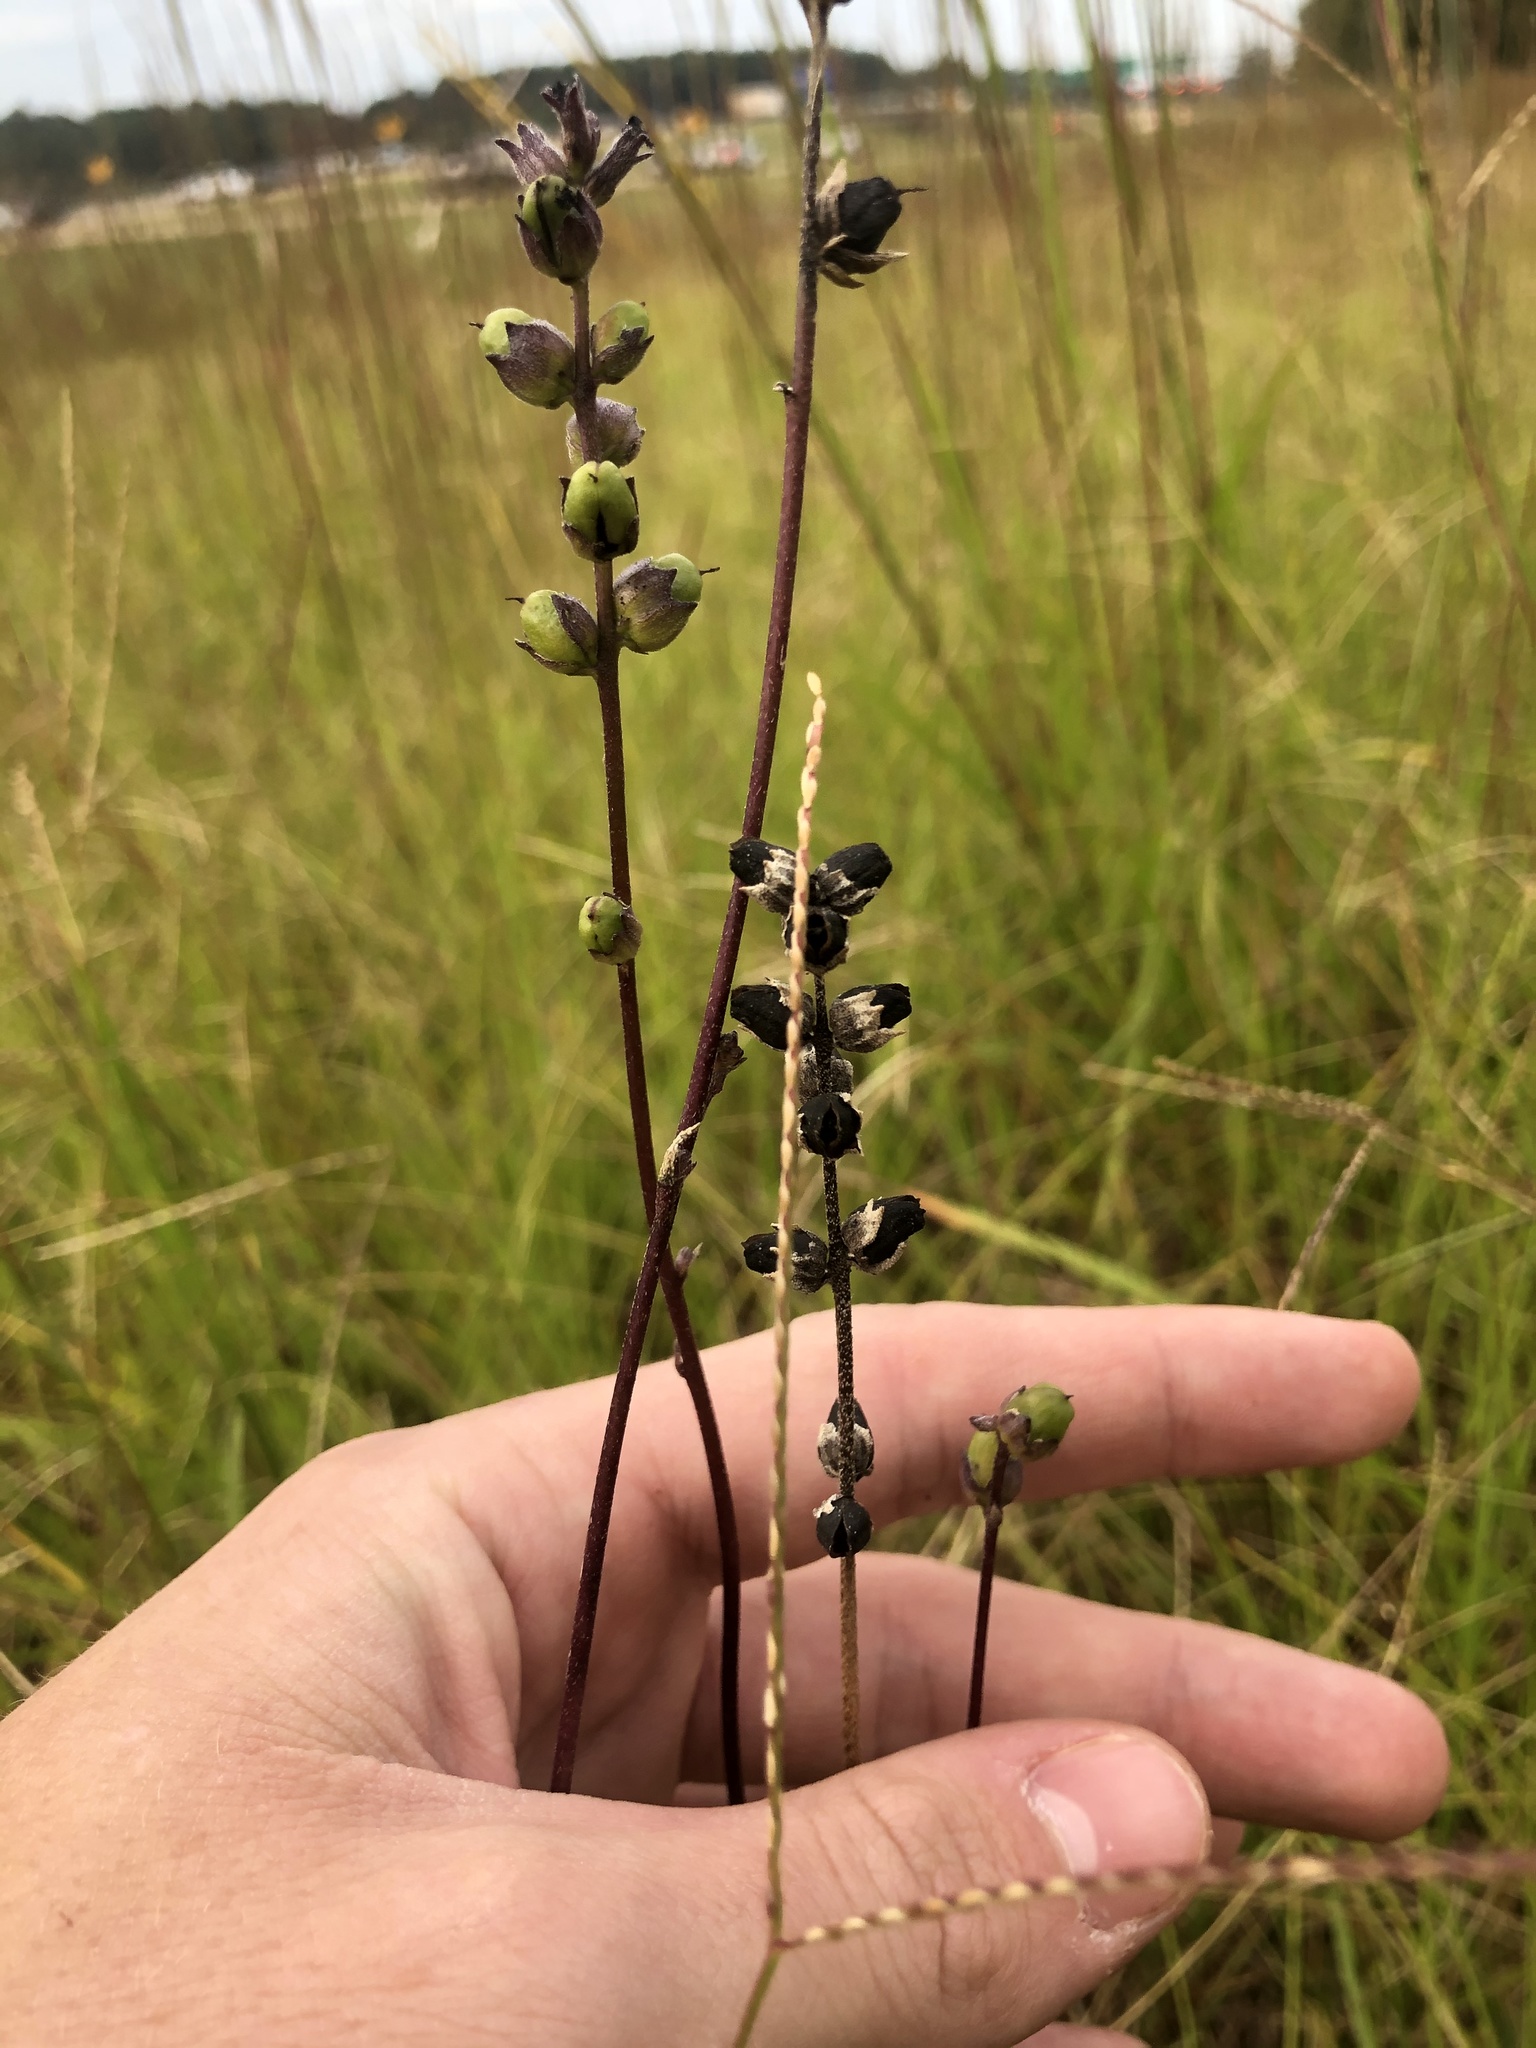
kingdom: Plantae
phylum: Tracheophyta
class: Magnoliopsida
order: Lamiales
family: Orobanchaceae
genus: Buchnera
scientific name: Buchnera floridana
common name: Florida bluehearts
